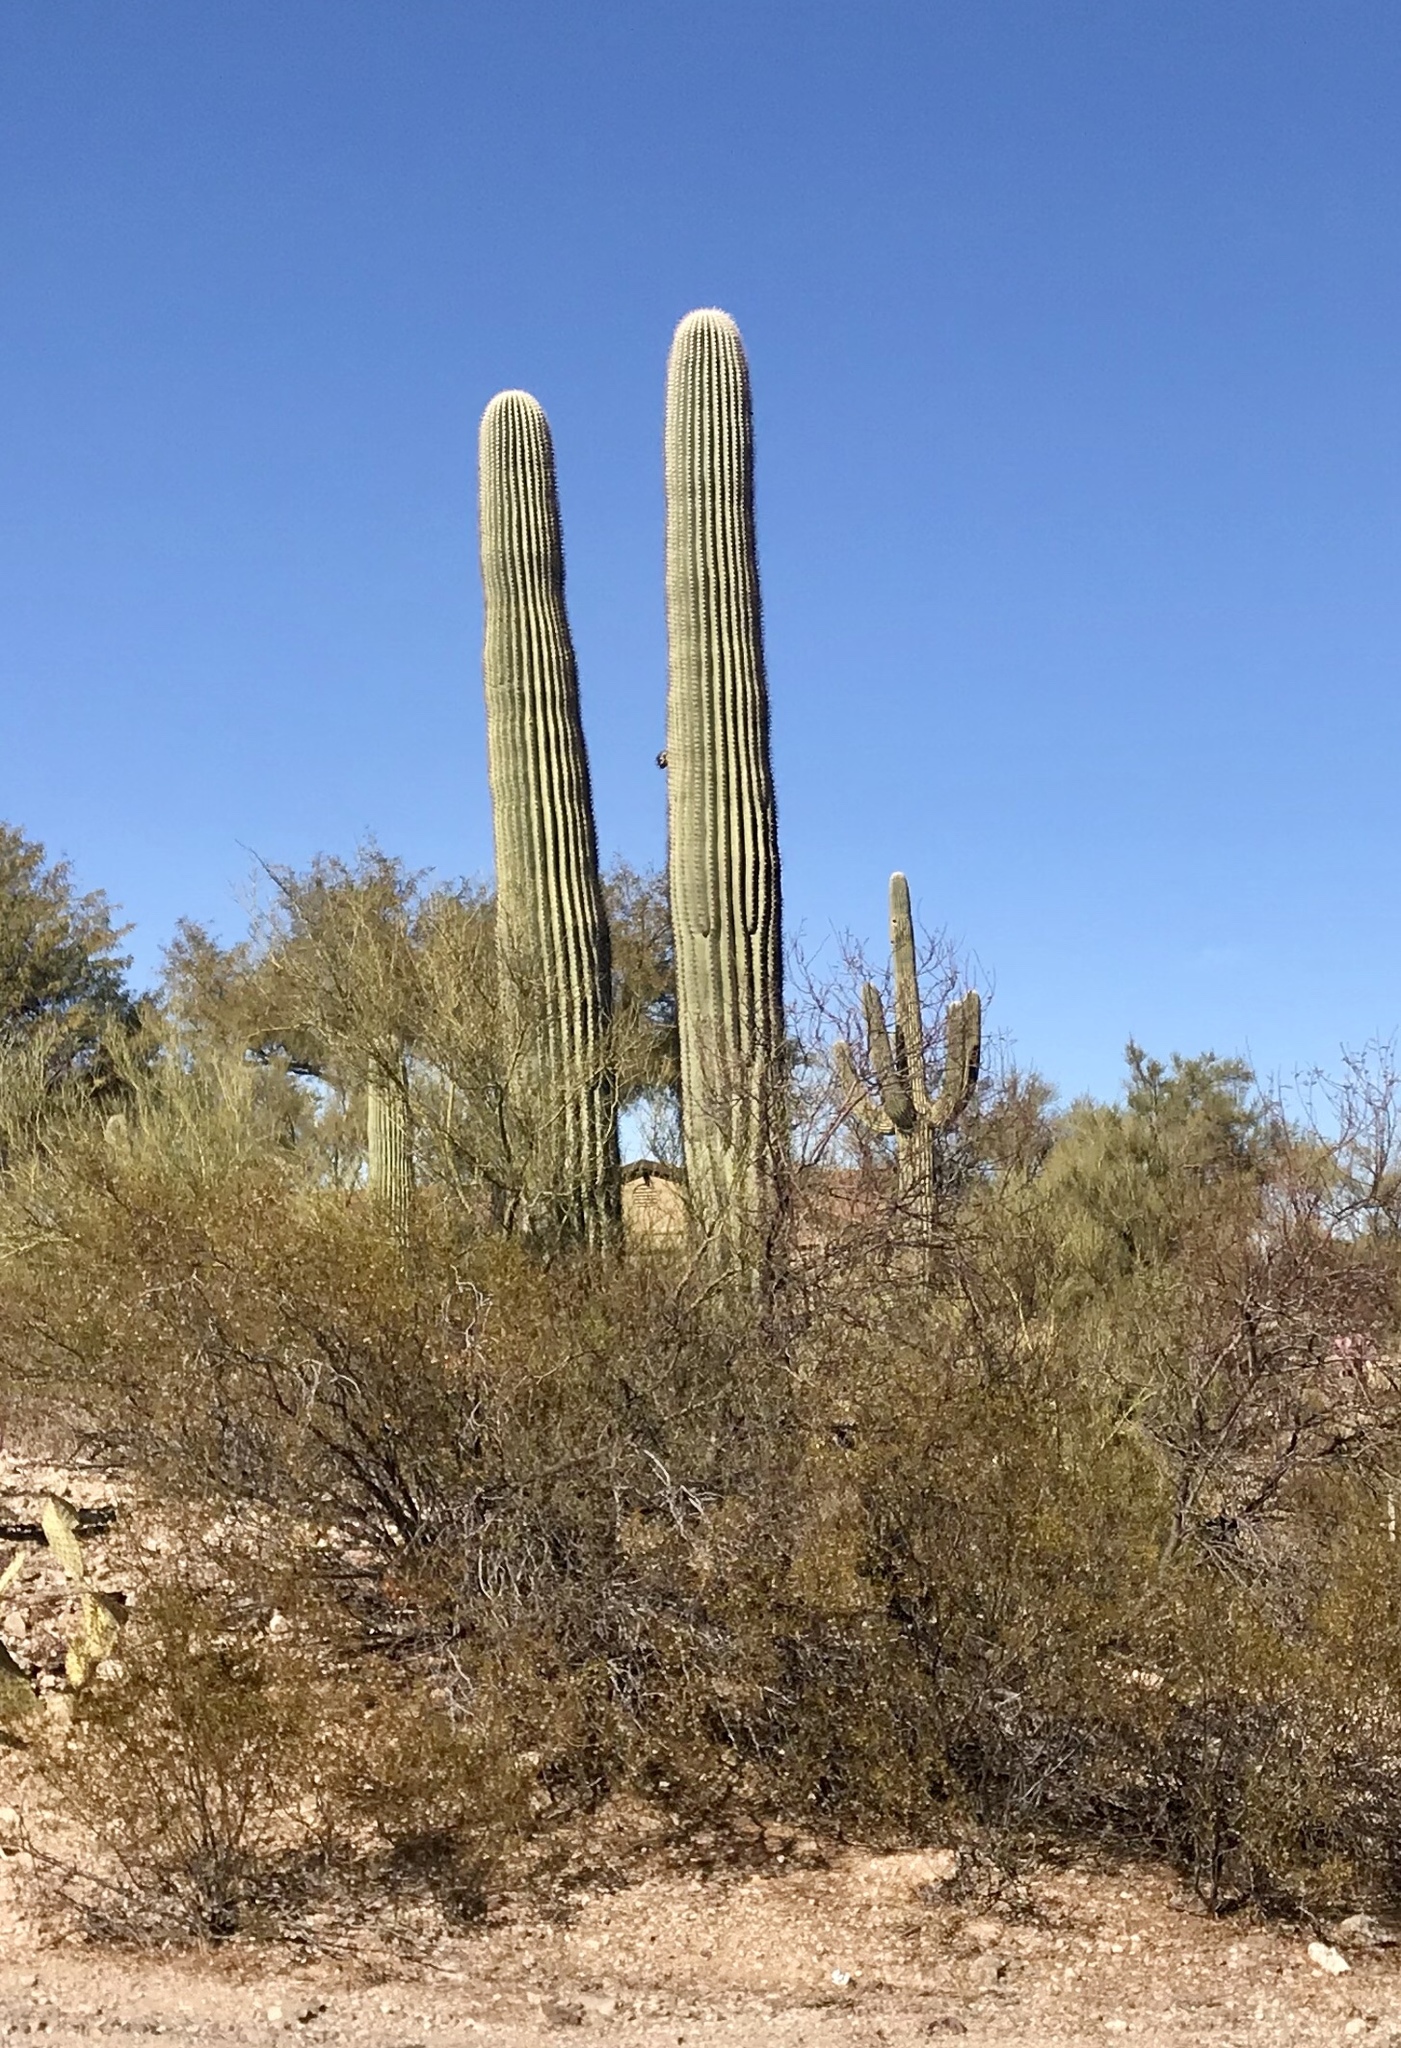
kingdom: Plantae
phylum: Tracheophyta
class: Magnoliopsida
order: Zygophyllales
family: Zygophyllaceae
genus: Larrea
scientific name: Larrea tridentata
